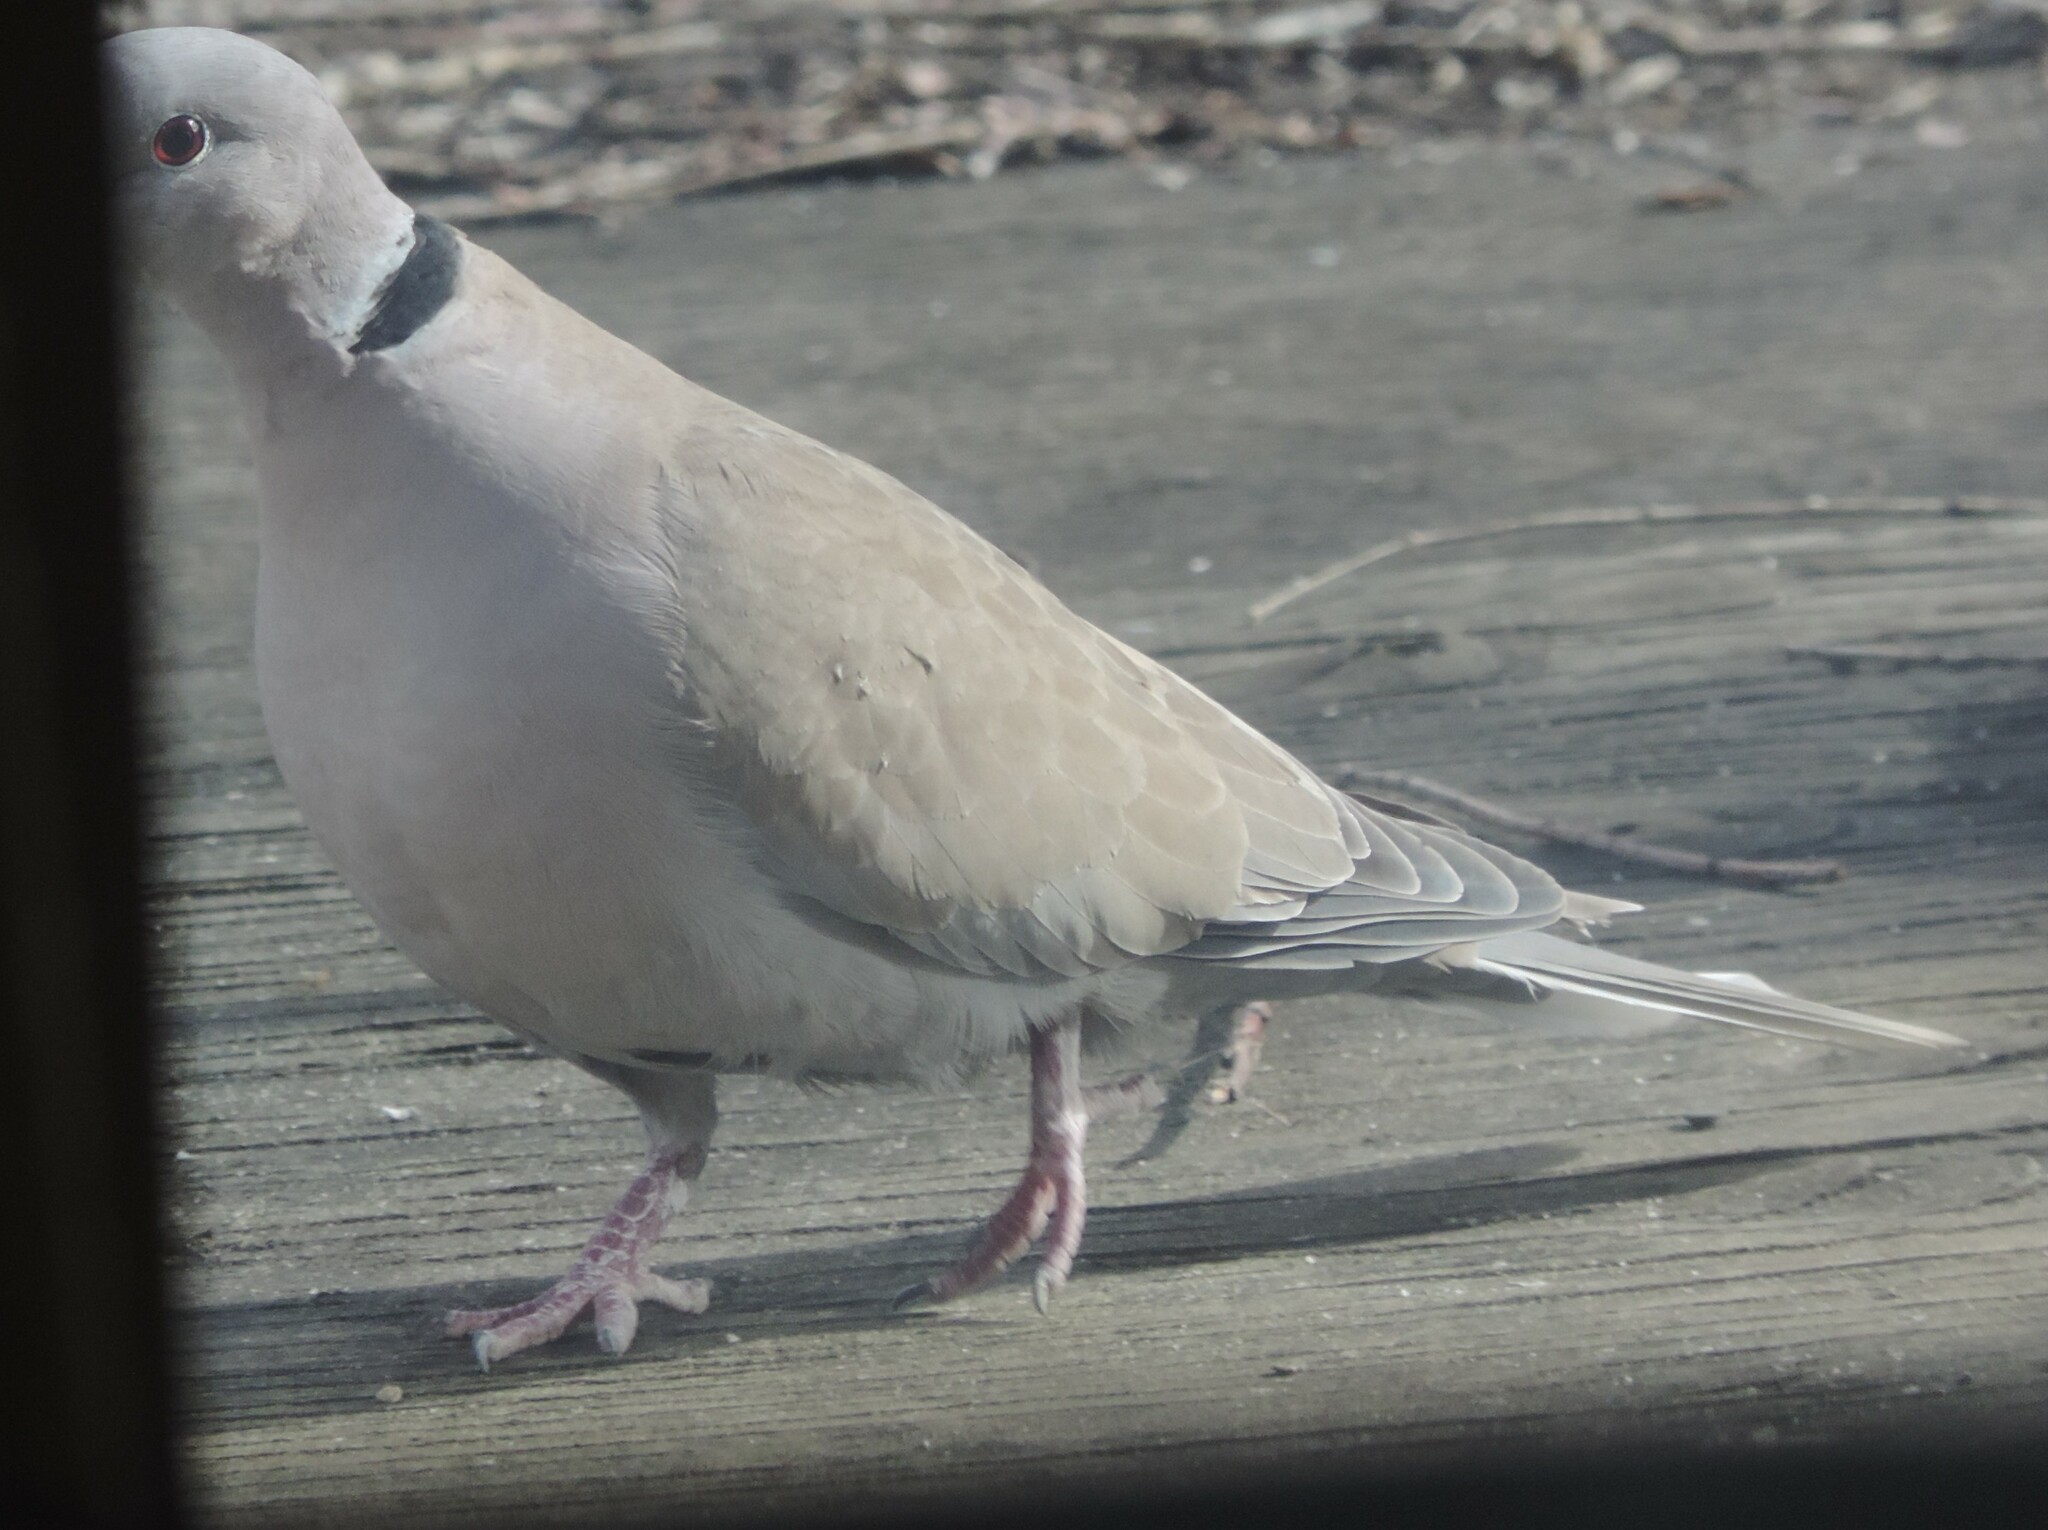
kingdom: Animalia
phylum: Chordata
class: Aves
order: Columbiformes
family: Columbidae
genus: Streptopelia
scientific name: Streptopelia decaocto
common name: Eurasian collared dove
